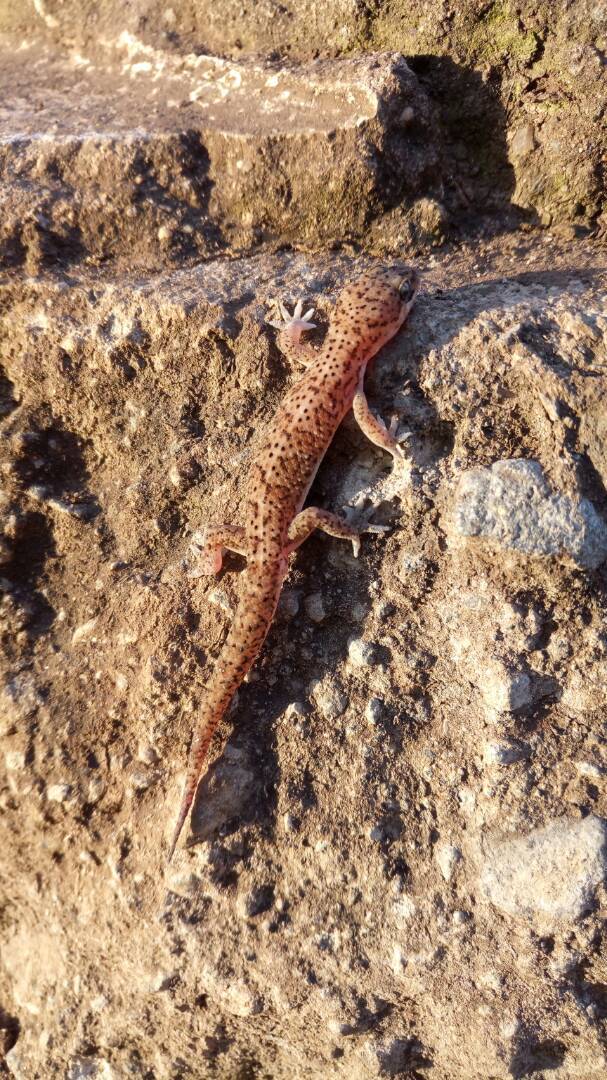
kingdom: Animalia
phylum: Chordata
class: Squamata
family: Gekkonidae
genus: Hemidactylus
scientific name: Hemidactylus squamulatus
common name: Nyika gecko
